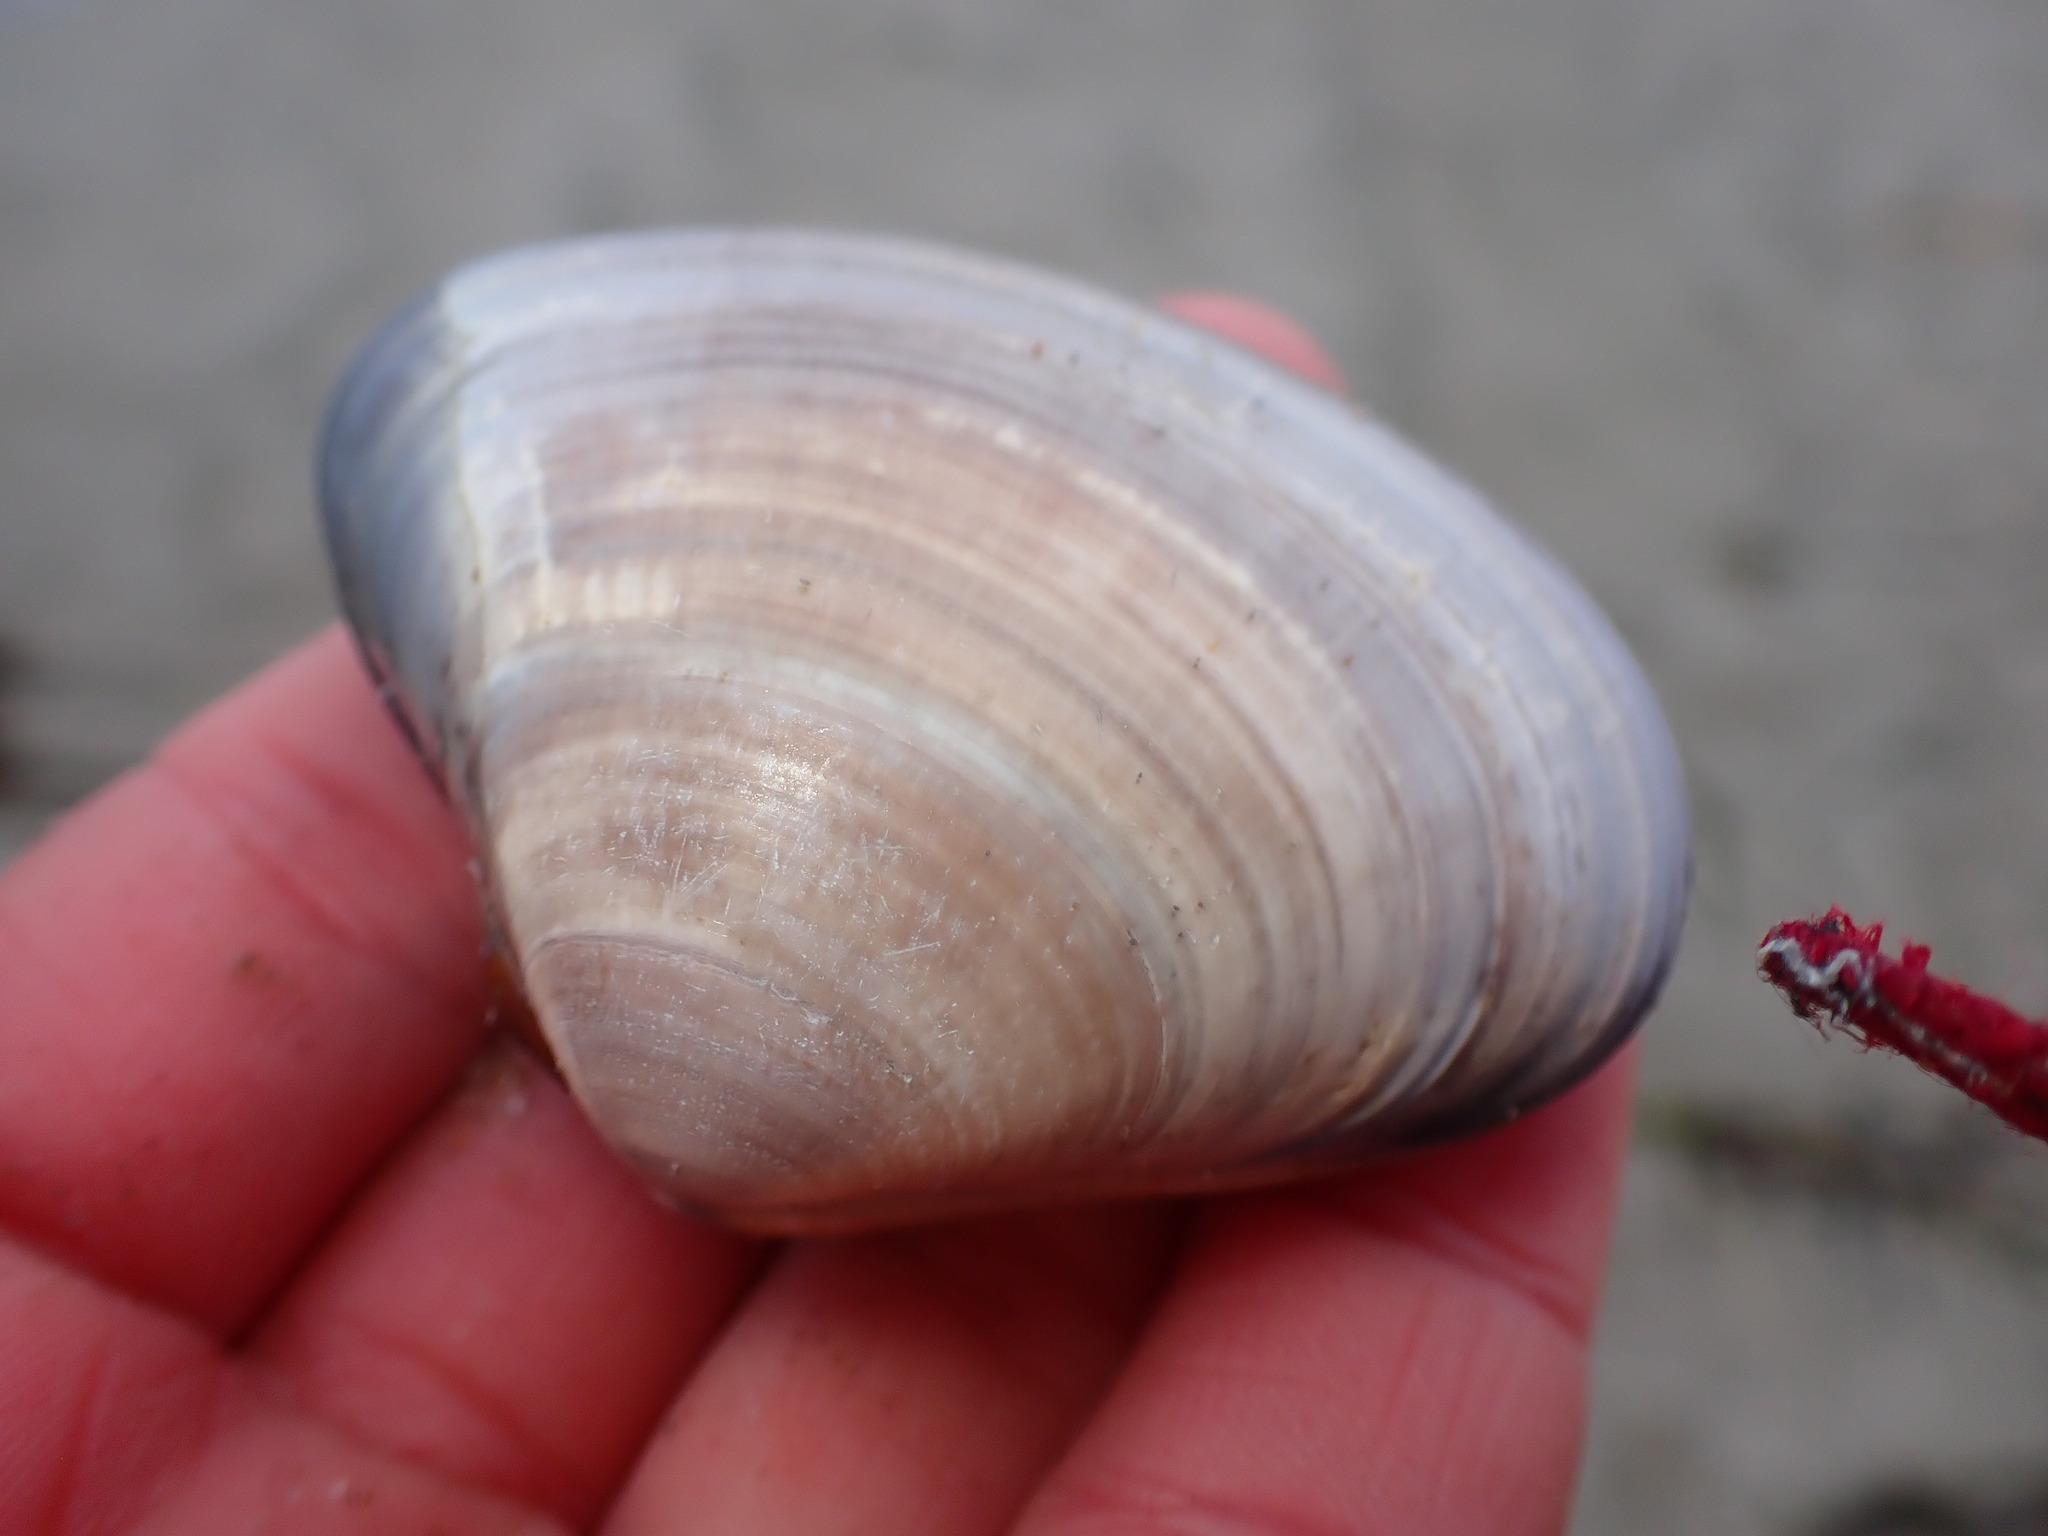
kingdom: Animalia
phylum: Mollusca
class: Bivalvia
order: Venerida
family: Veneridae
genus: Tivela
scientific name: Tivela stultorum
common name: Pismo clam
